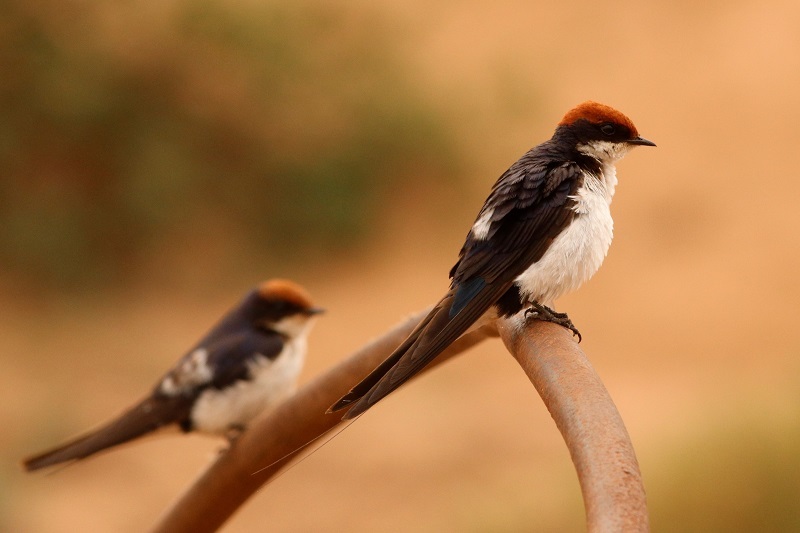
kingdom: Animalia
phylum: Chordata
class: Aves
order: Passeriformes
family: Hirundinidae
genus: Hirundo
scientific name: Hirundo smithii
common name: Wire-tailed swallow
